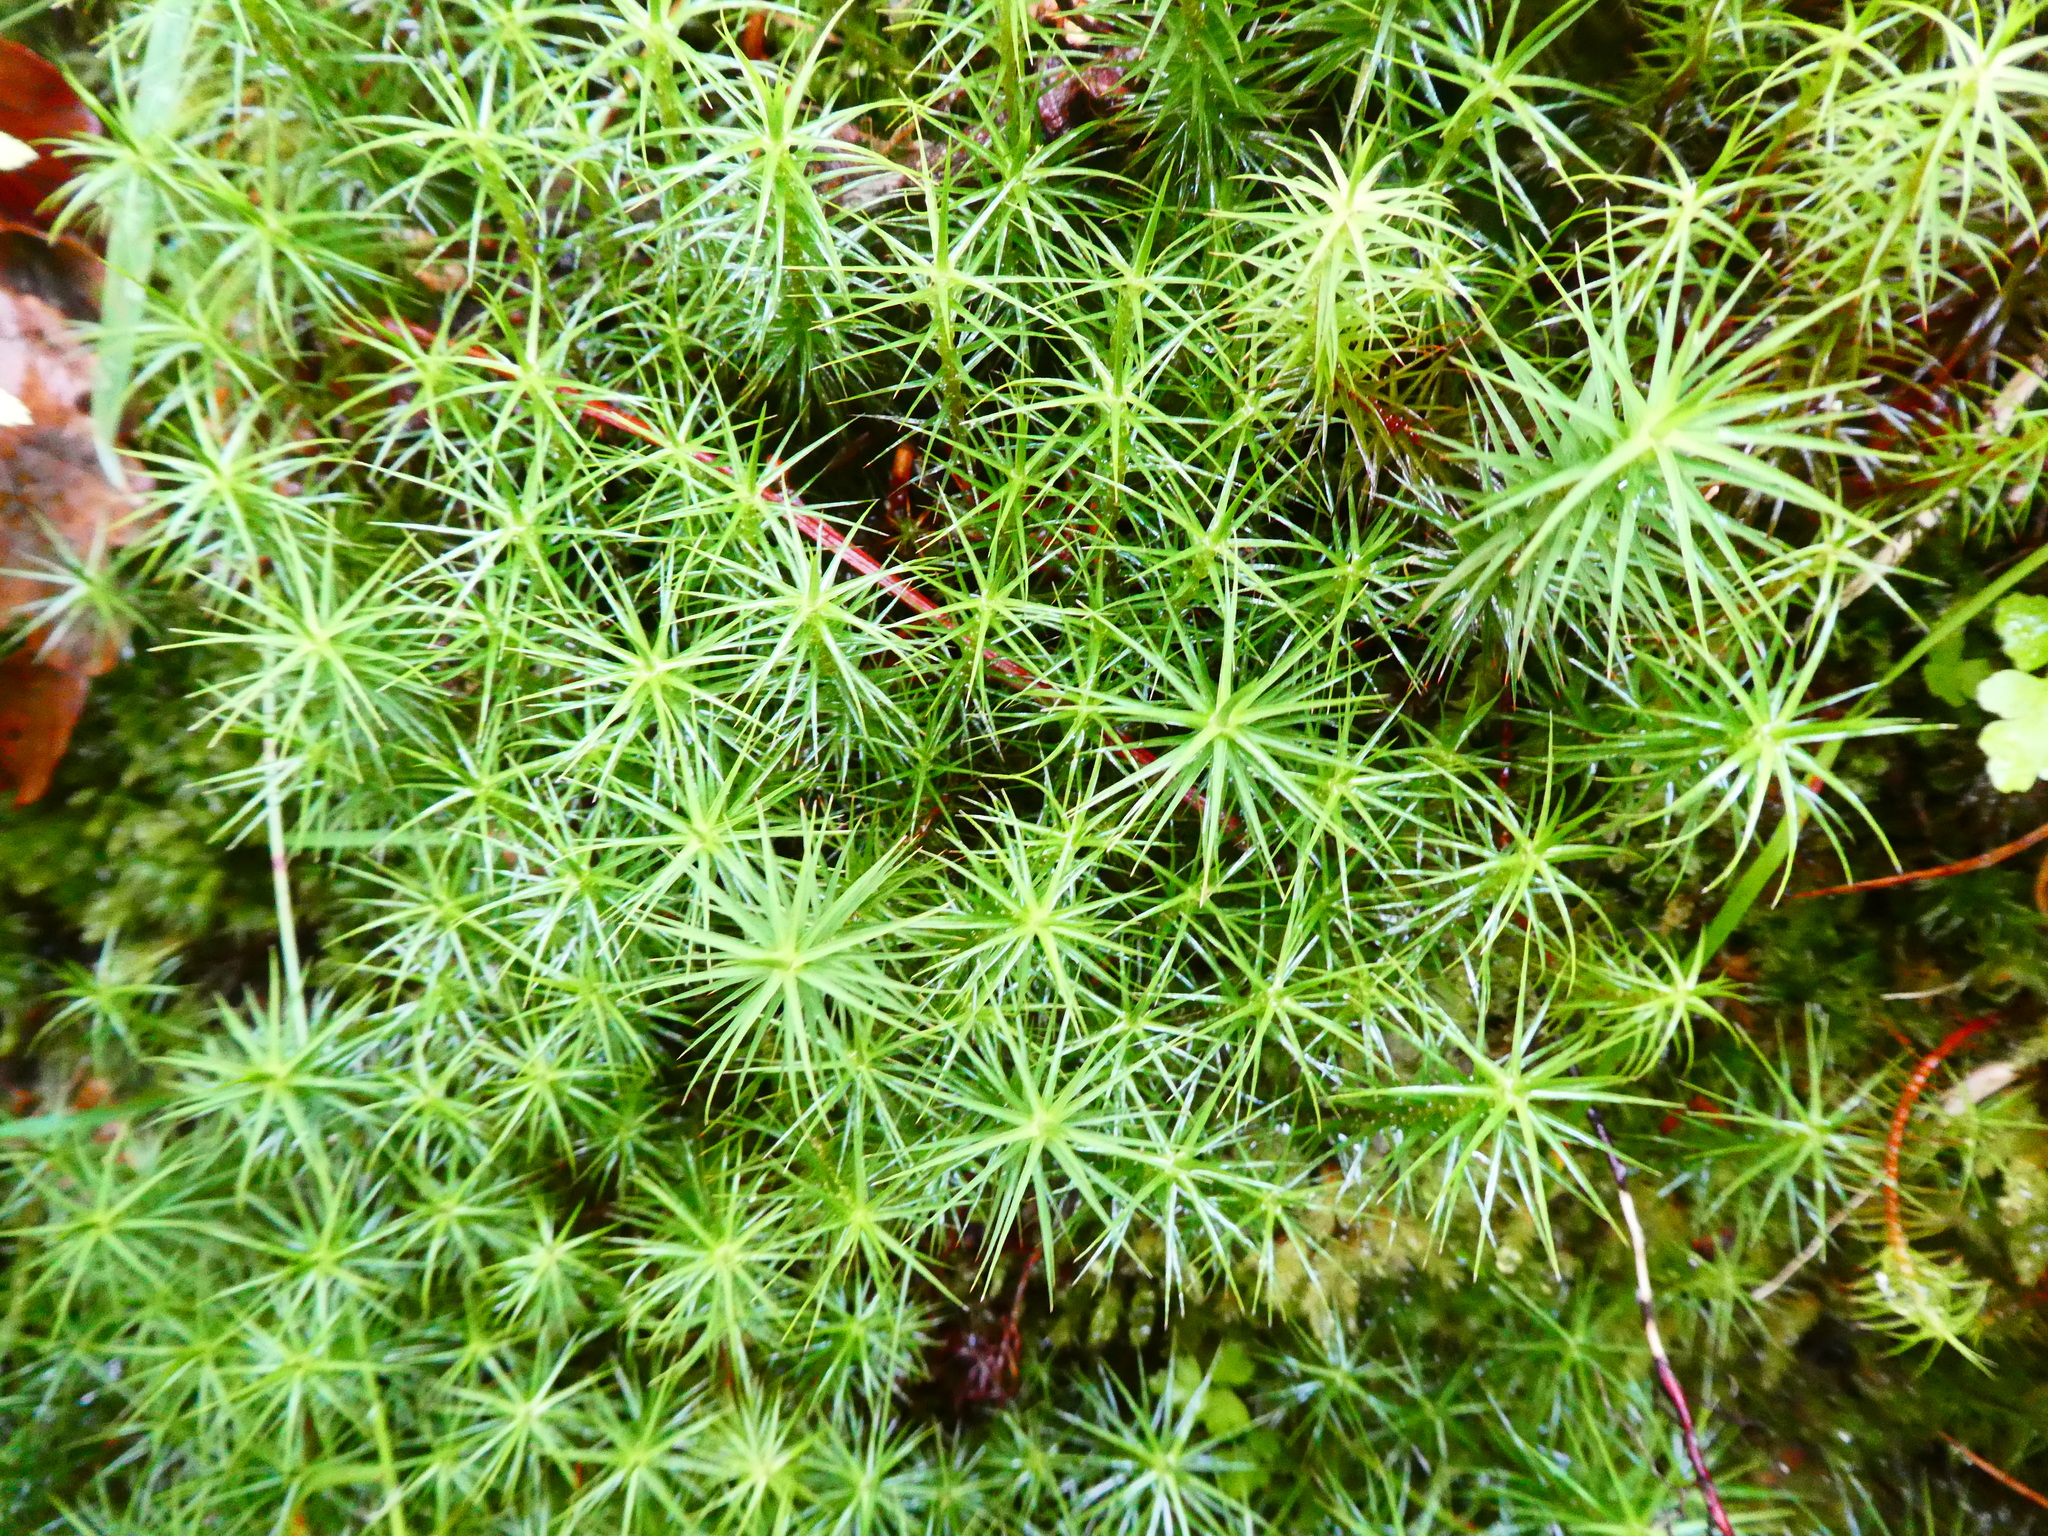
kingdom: Plantae
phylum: Bryophyta
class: Polytrichopsida
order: Polytrichales
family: Polytrichaceae
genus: Polytrichum
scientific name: Polytrichum commune
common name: Common haircap
